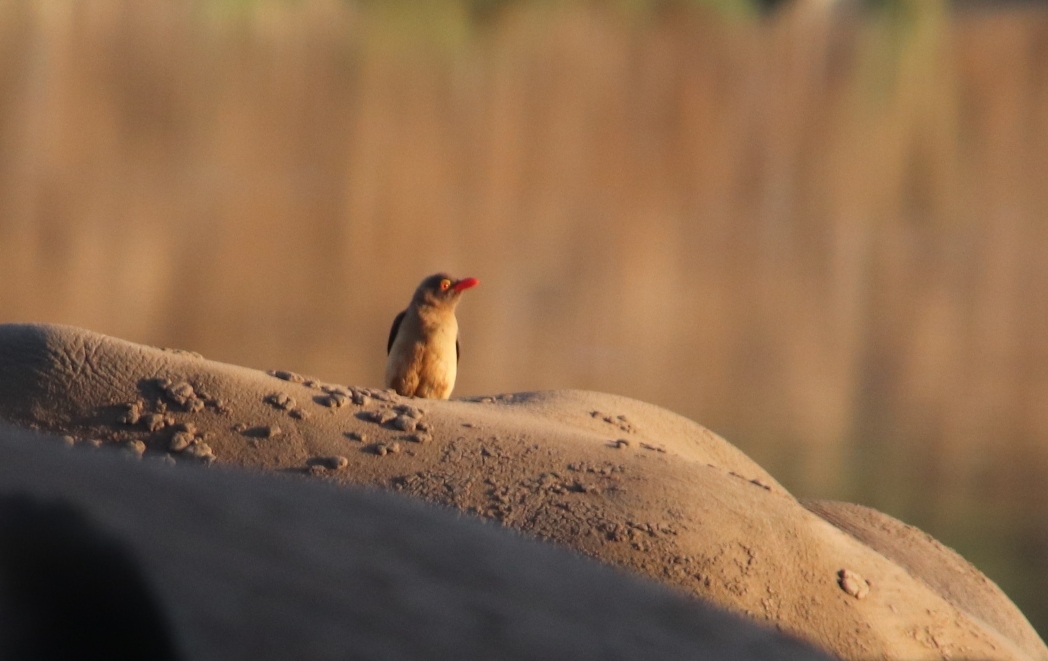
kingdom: Animalia
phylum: Chordata
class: Aves
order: Passeriformes
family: Buphagidae
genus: Buphagus
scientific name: Buphagus erythrorhynchus
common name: Red-billed oxpecker
